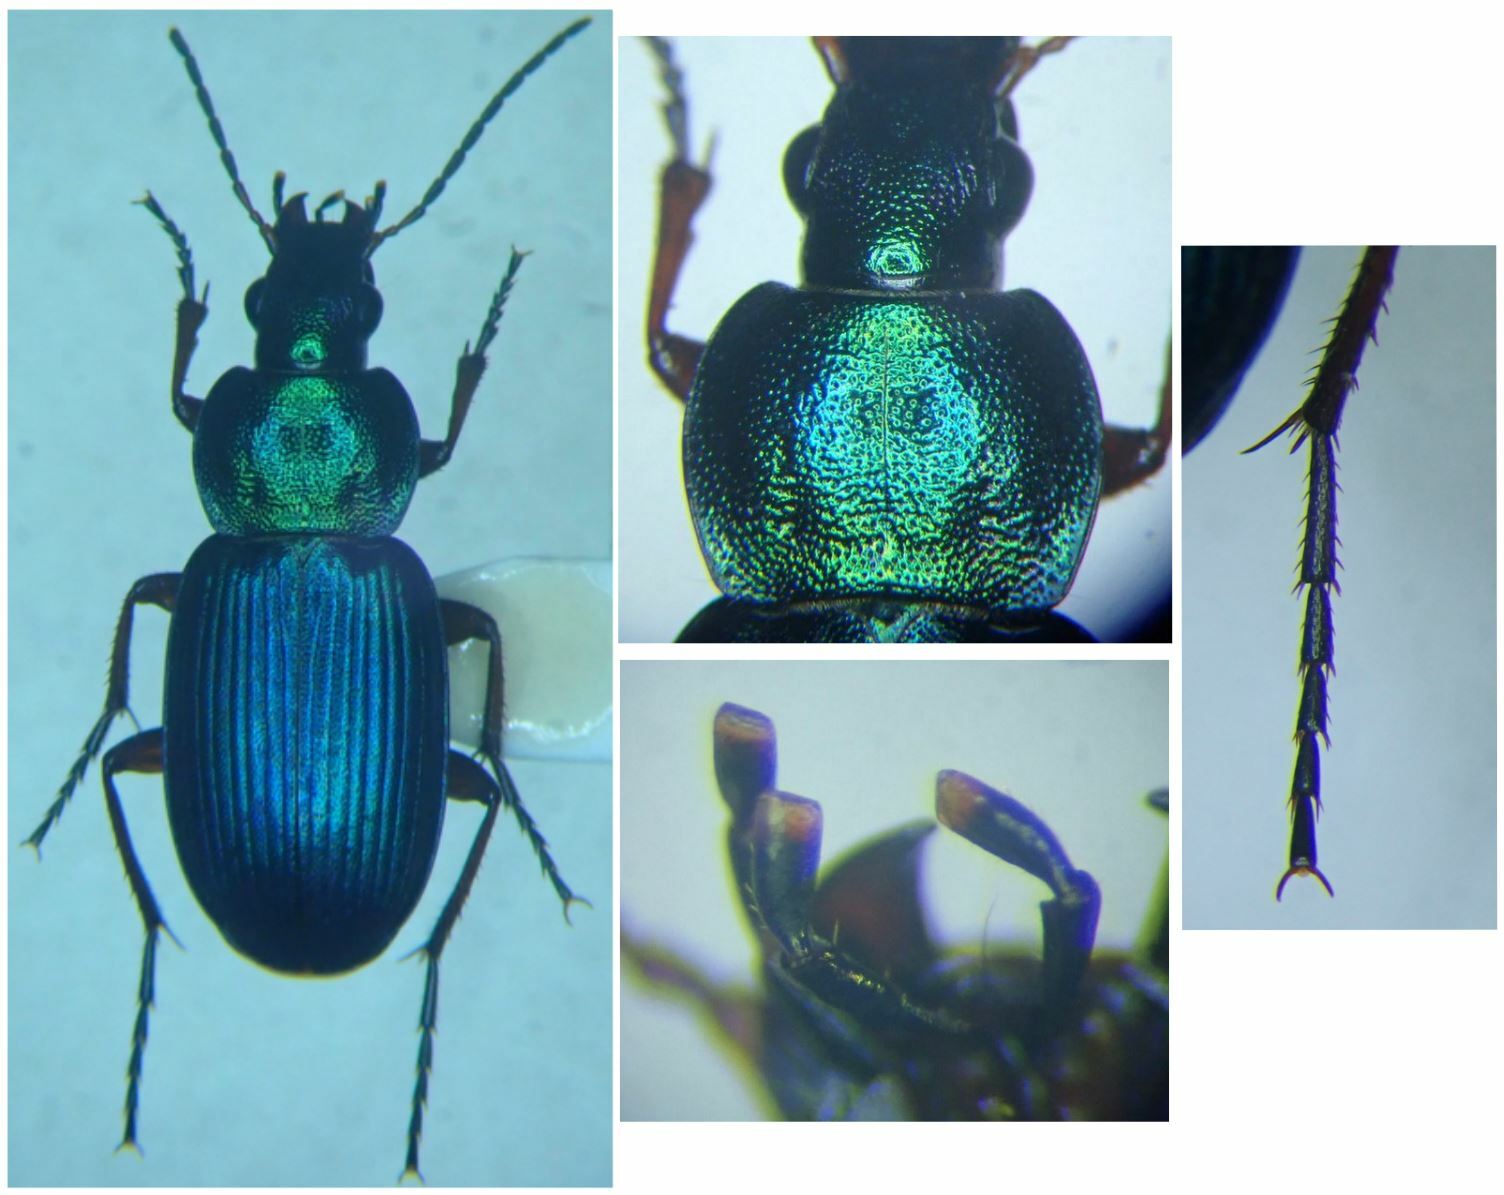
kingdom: Animalia
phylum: Arthropoda
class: Insecta
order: Coleoptera
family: Carabidae
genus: Chlaenius
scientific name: Chlaenius decipiens
